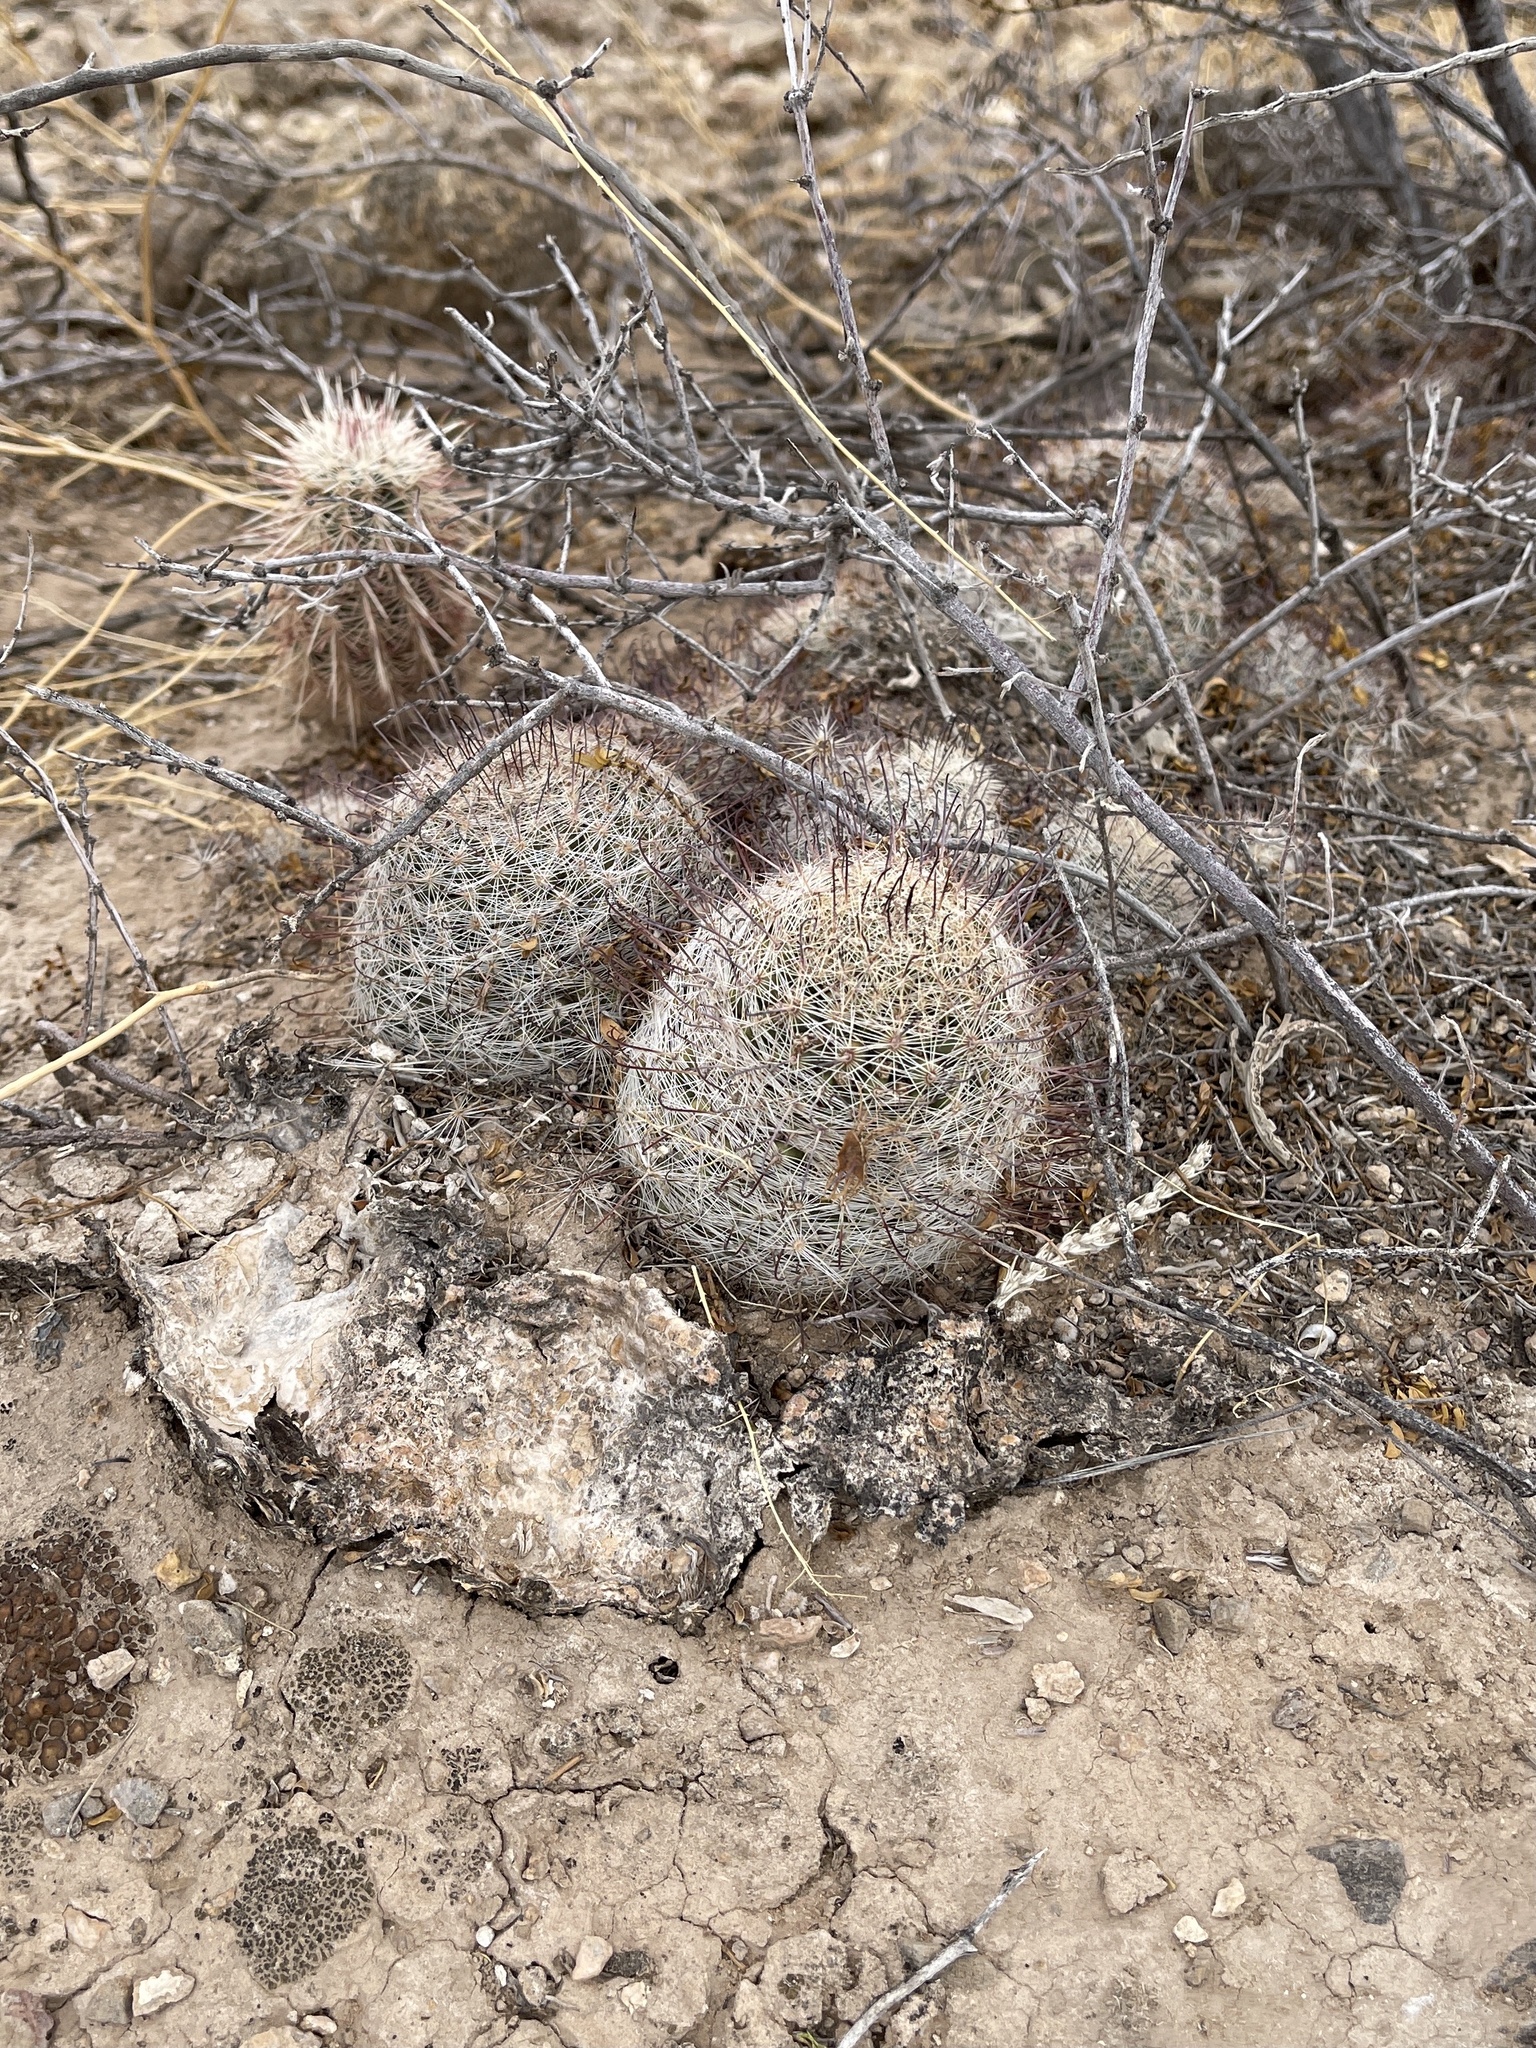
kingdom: Plantae
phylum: Tracheophyta
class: Magnoliopsida
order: Caryophyllales
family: Cactaceae
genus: Cochemiea
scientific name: Cochemiea grahamii
